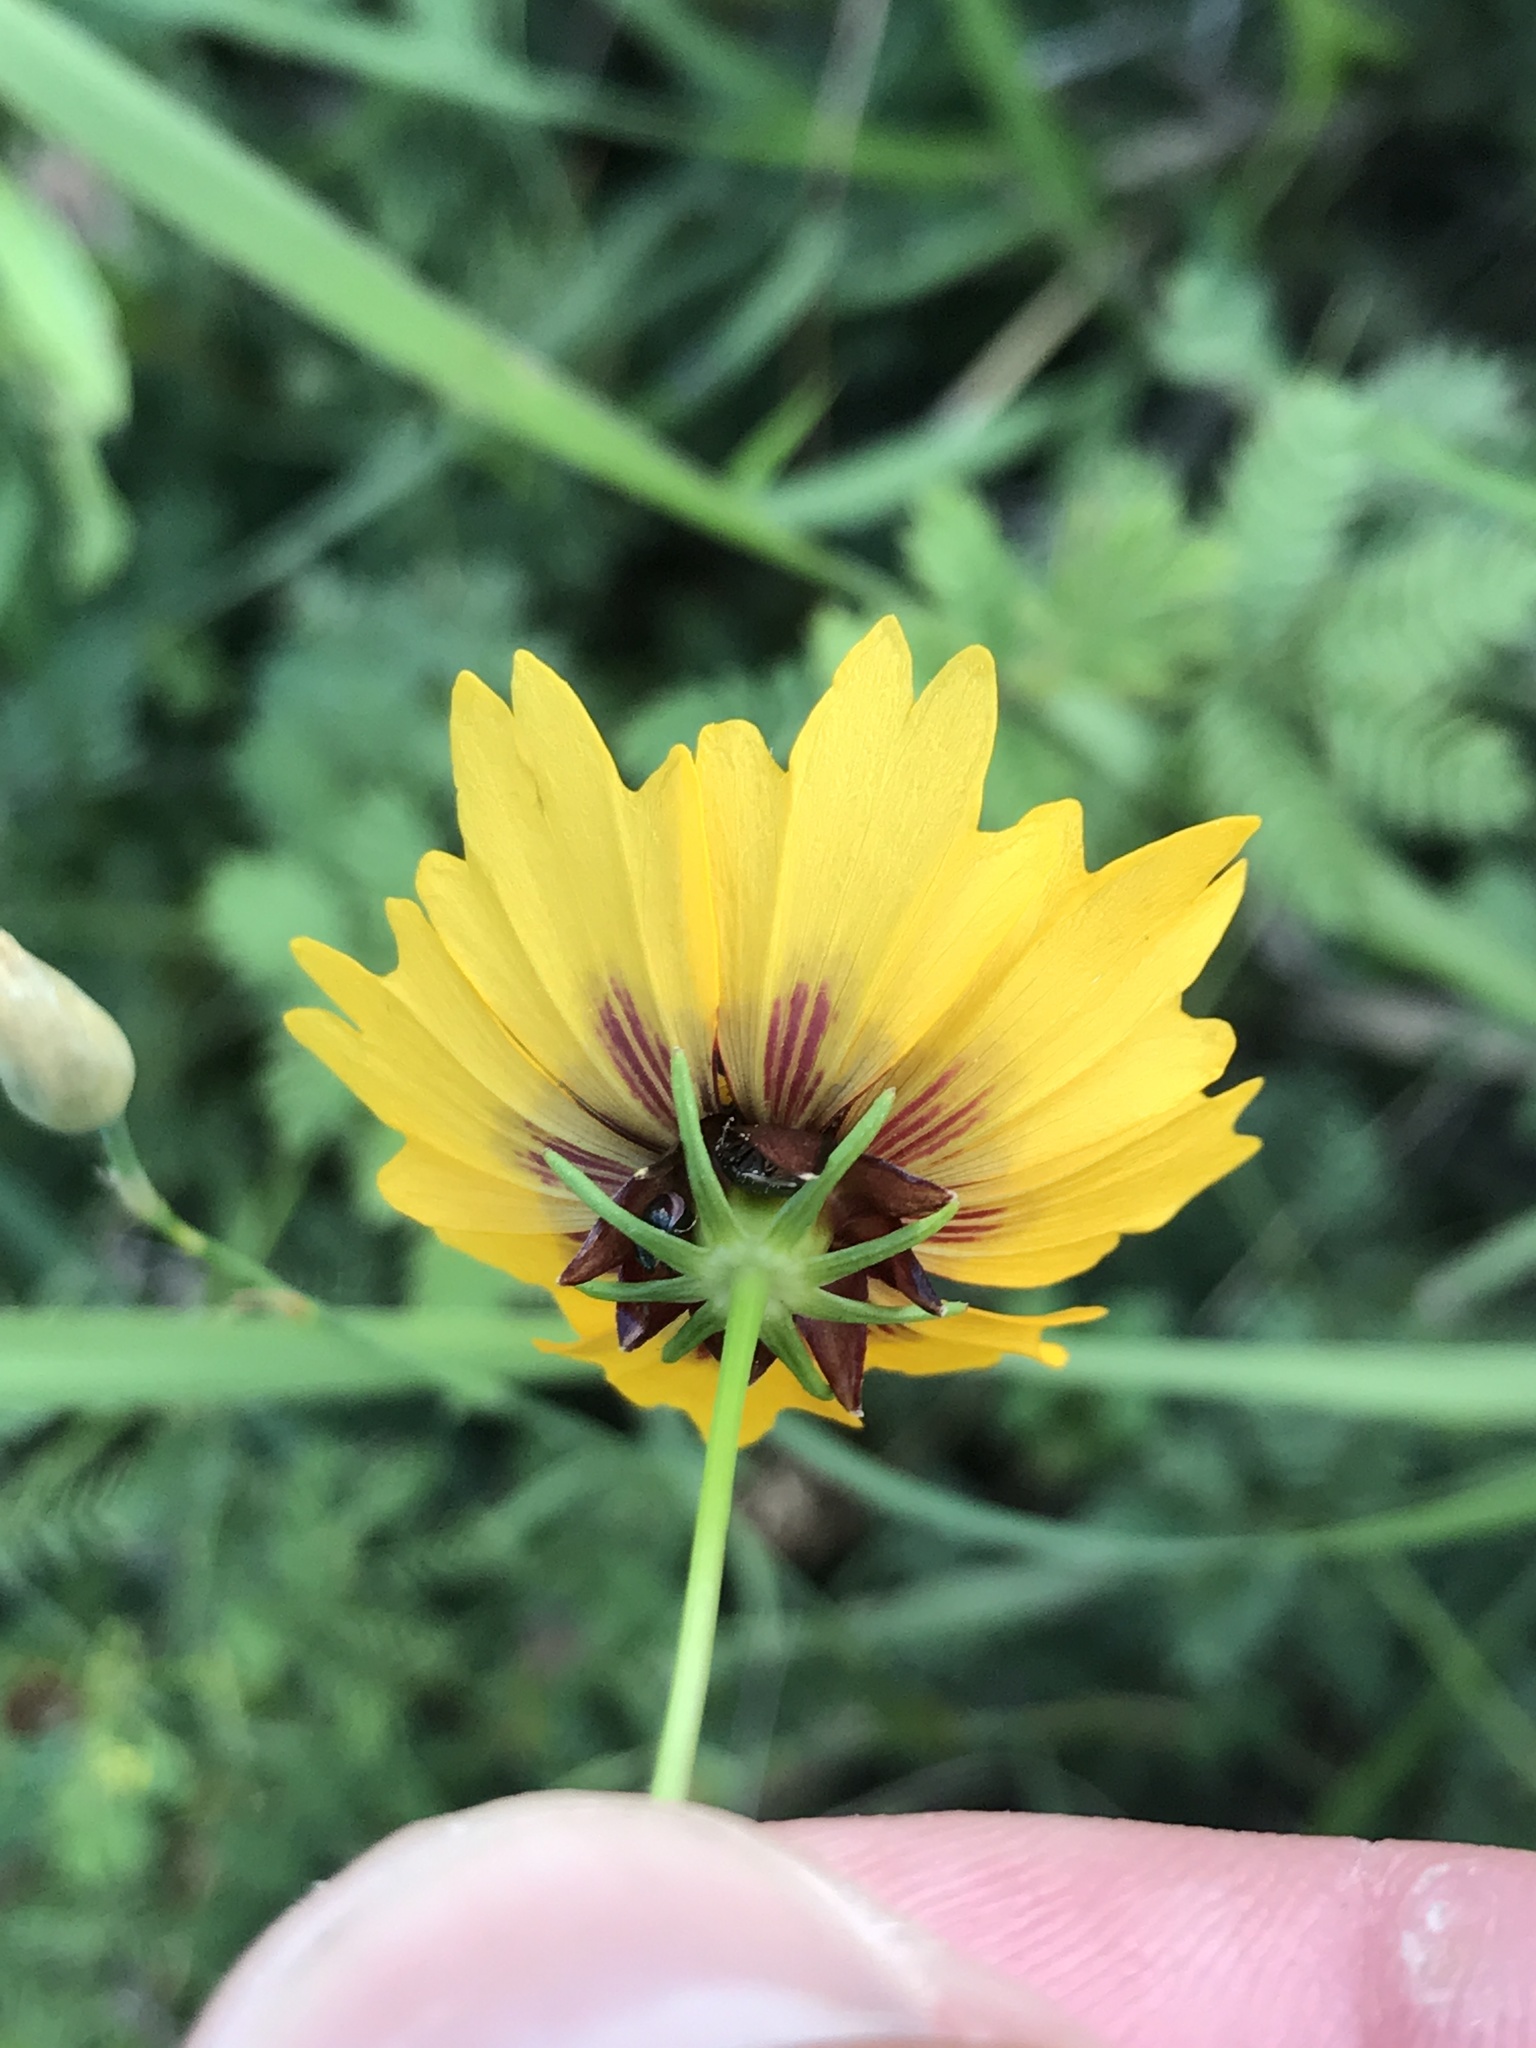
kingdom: Plantae
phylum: Tracheophyta
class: Magnoliopsida
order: Asterales
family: Asteraceae
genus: Coreopsis
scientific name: Coreopsis basalis
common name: Golden-mane coreopsis
